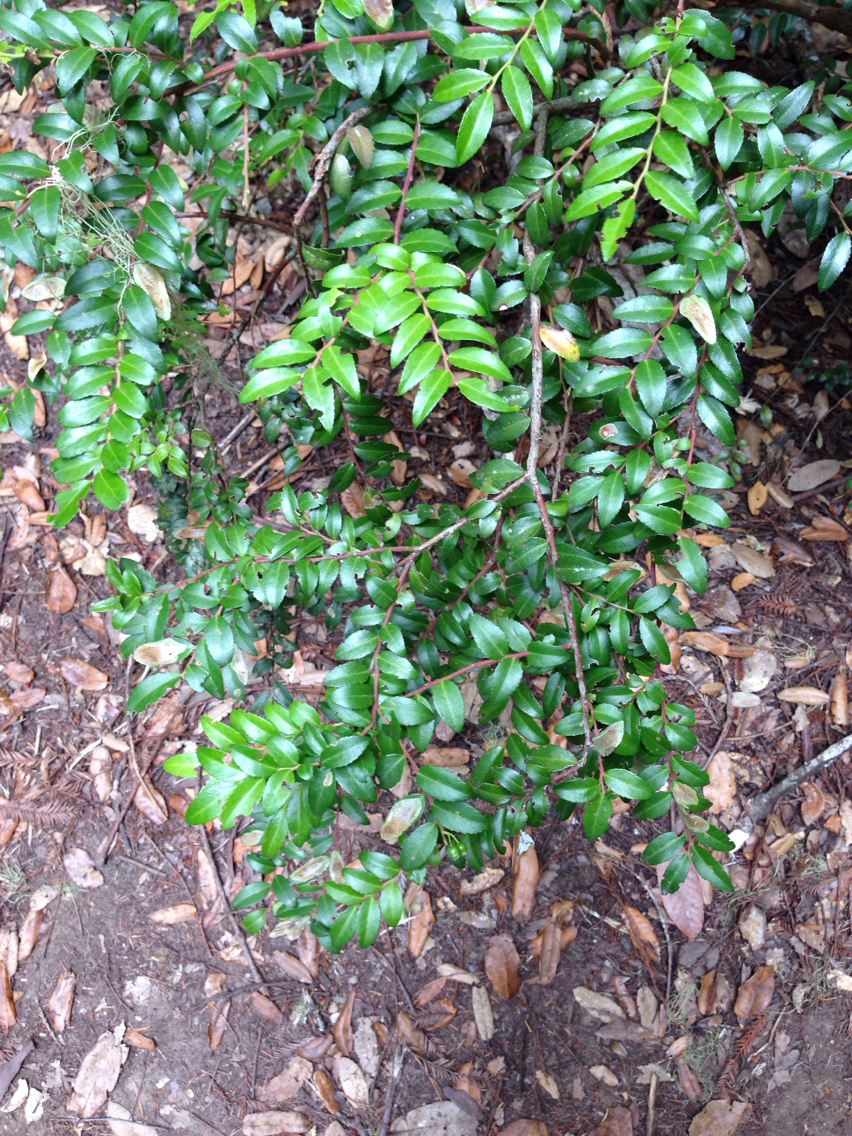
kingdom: Plantae
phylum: Tracheophyta
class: Magnoliopsida
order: Ericales
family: Ericaceae
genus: Vaccinium
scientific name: Vaccinium ovatum
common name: California-huckleberry
